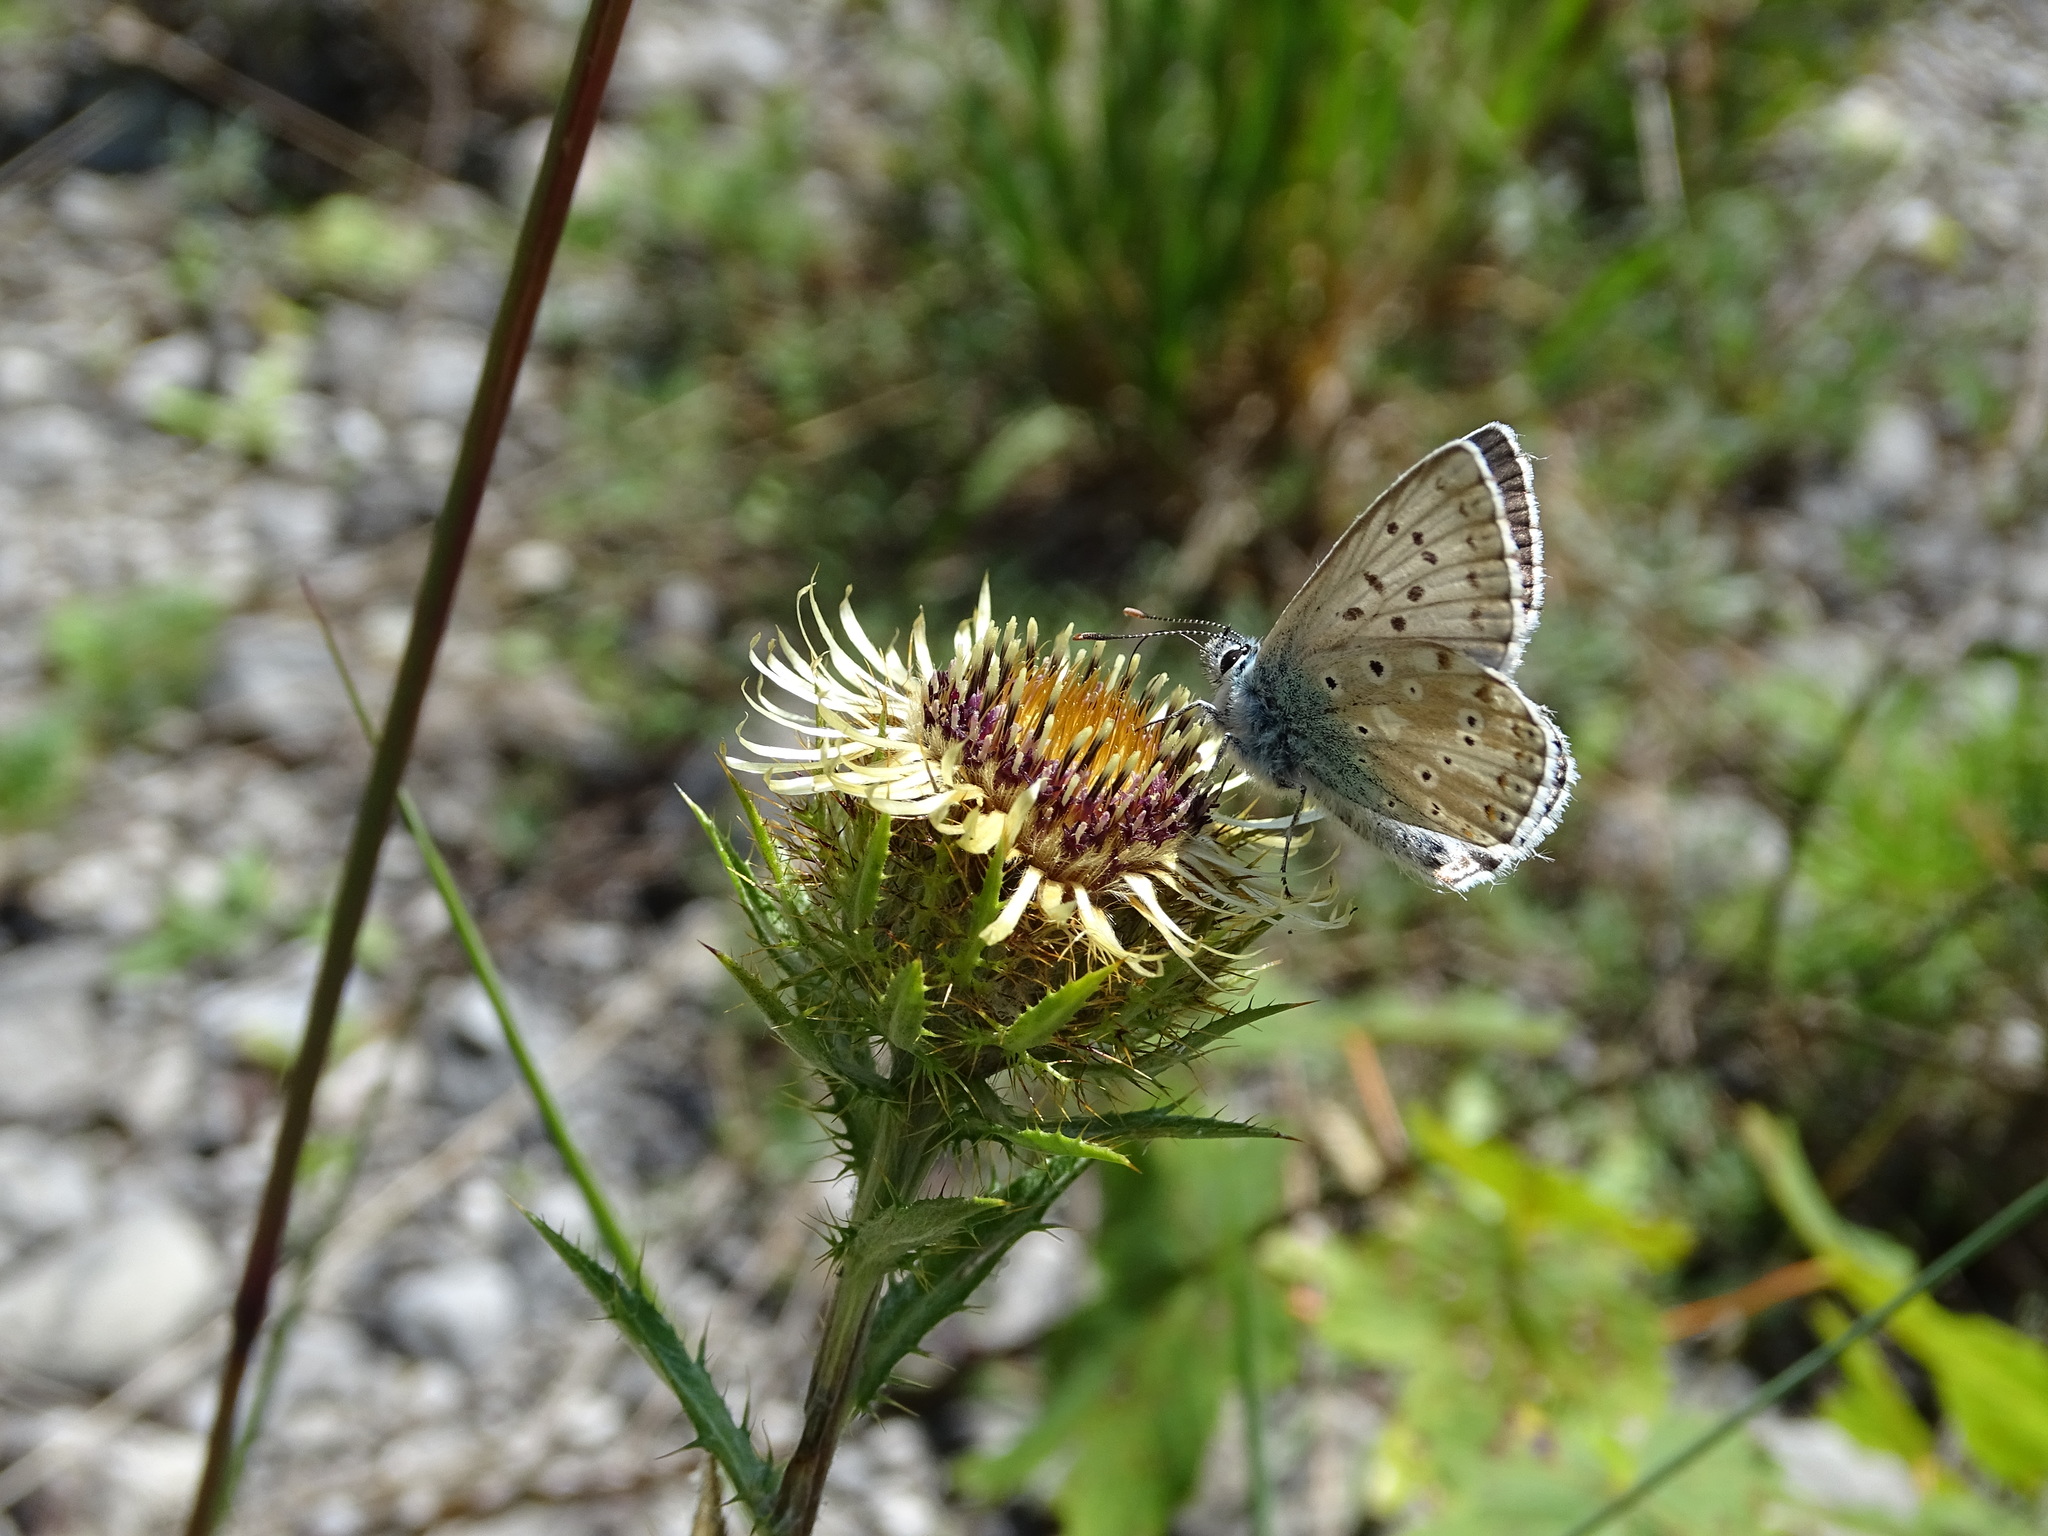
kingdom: Animalia
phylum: Arthropoda
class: Insecta
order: Lepidoptera
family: Lycaenidae
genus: Lysandra
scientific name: Lysandra coridon
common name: Chalkhill blue
